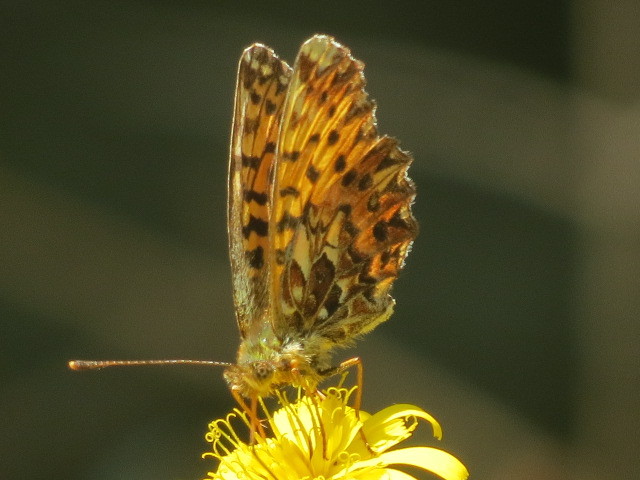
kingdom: Animalia
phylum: Arthropoda
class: Insecta
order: Lepidoptera
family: Nymphalidae
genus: Boloria
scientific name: Boloria titania
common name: Titania's fritillary
